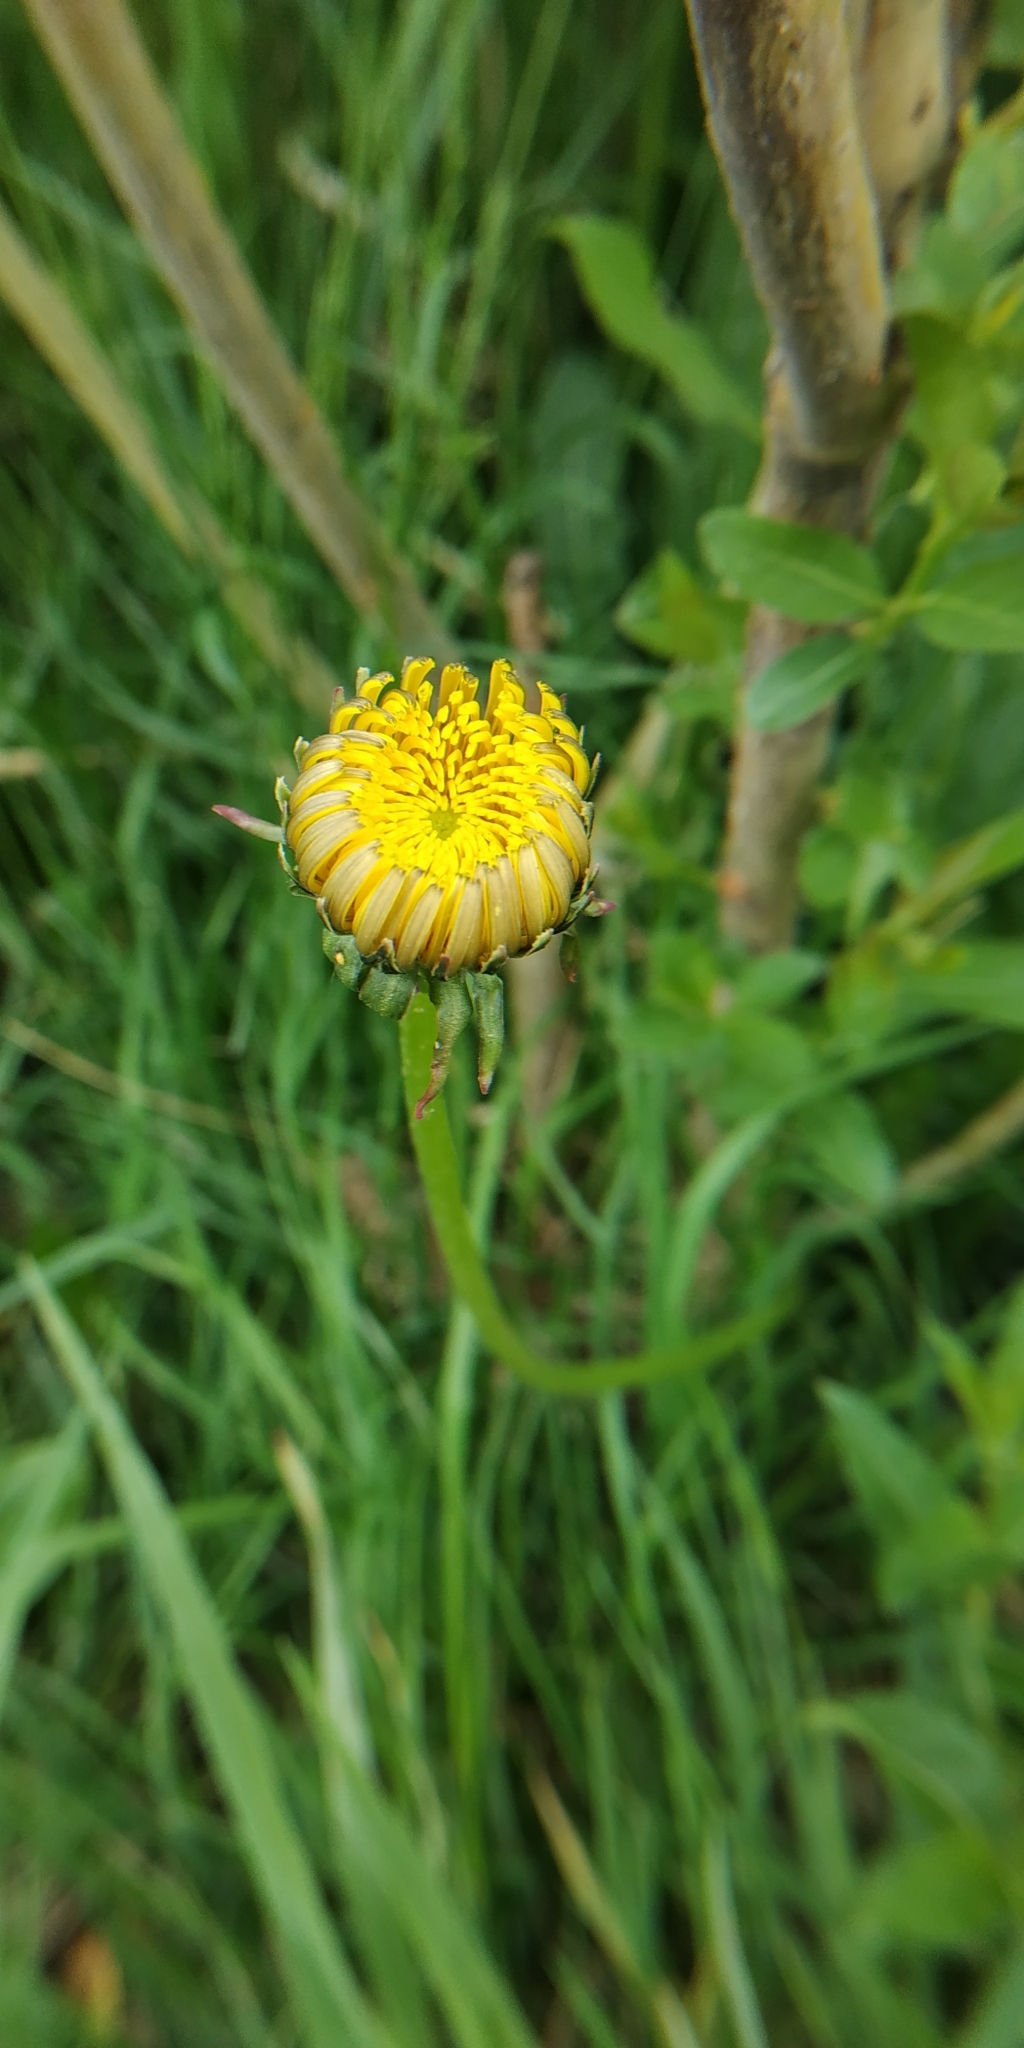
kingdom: Plantae
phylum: Tracheophyta
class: Magnoliopsida
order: Asterales
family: Asteraceae
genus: Taraxacum
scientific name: Taraxacum officinale
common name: Common dandelion
